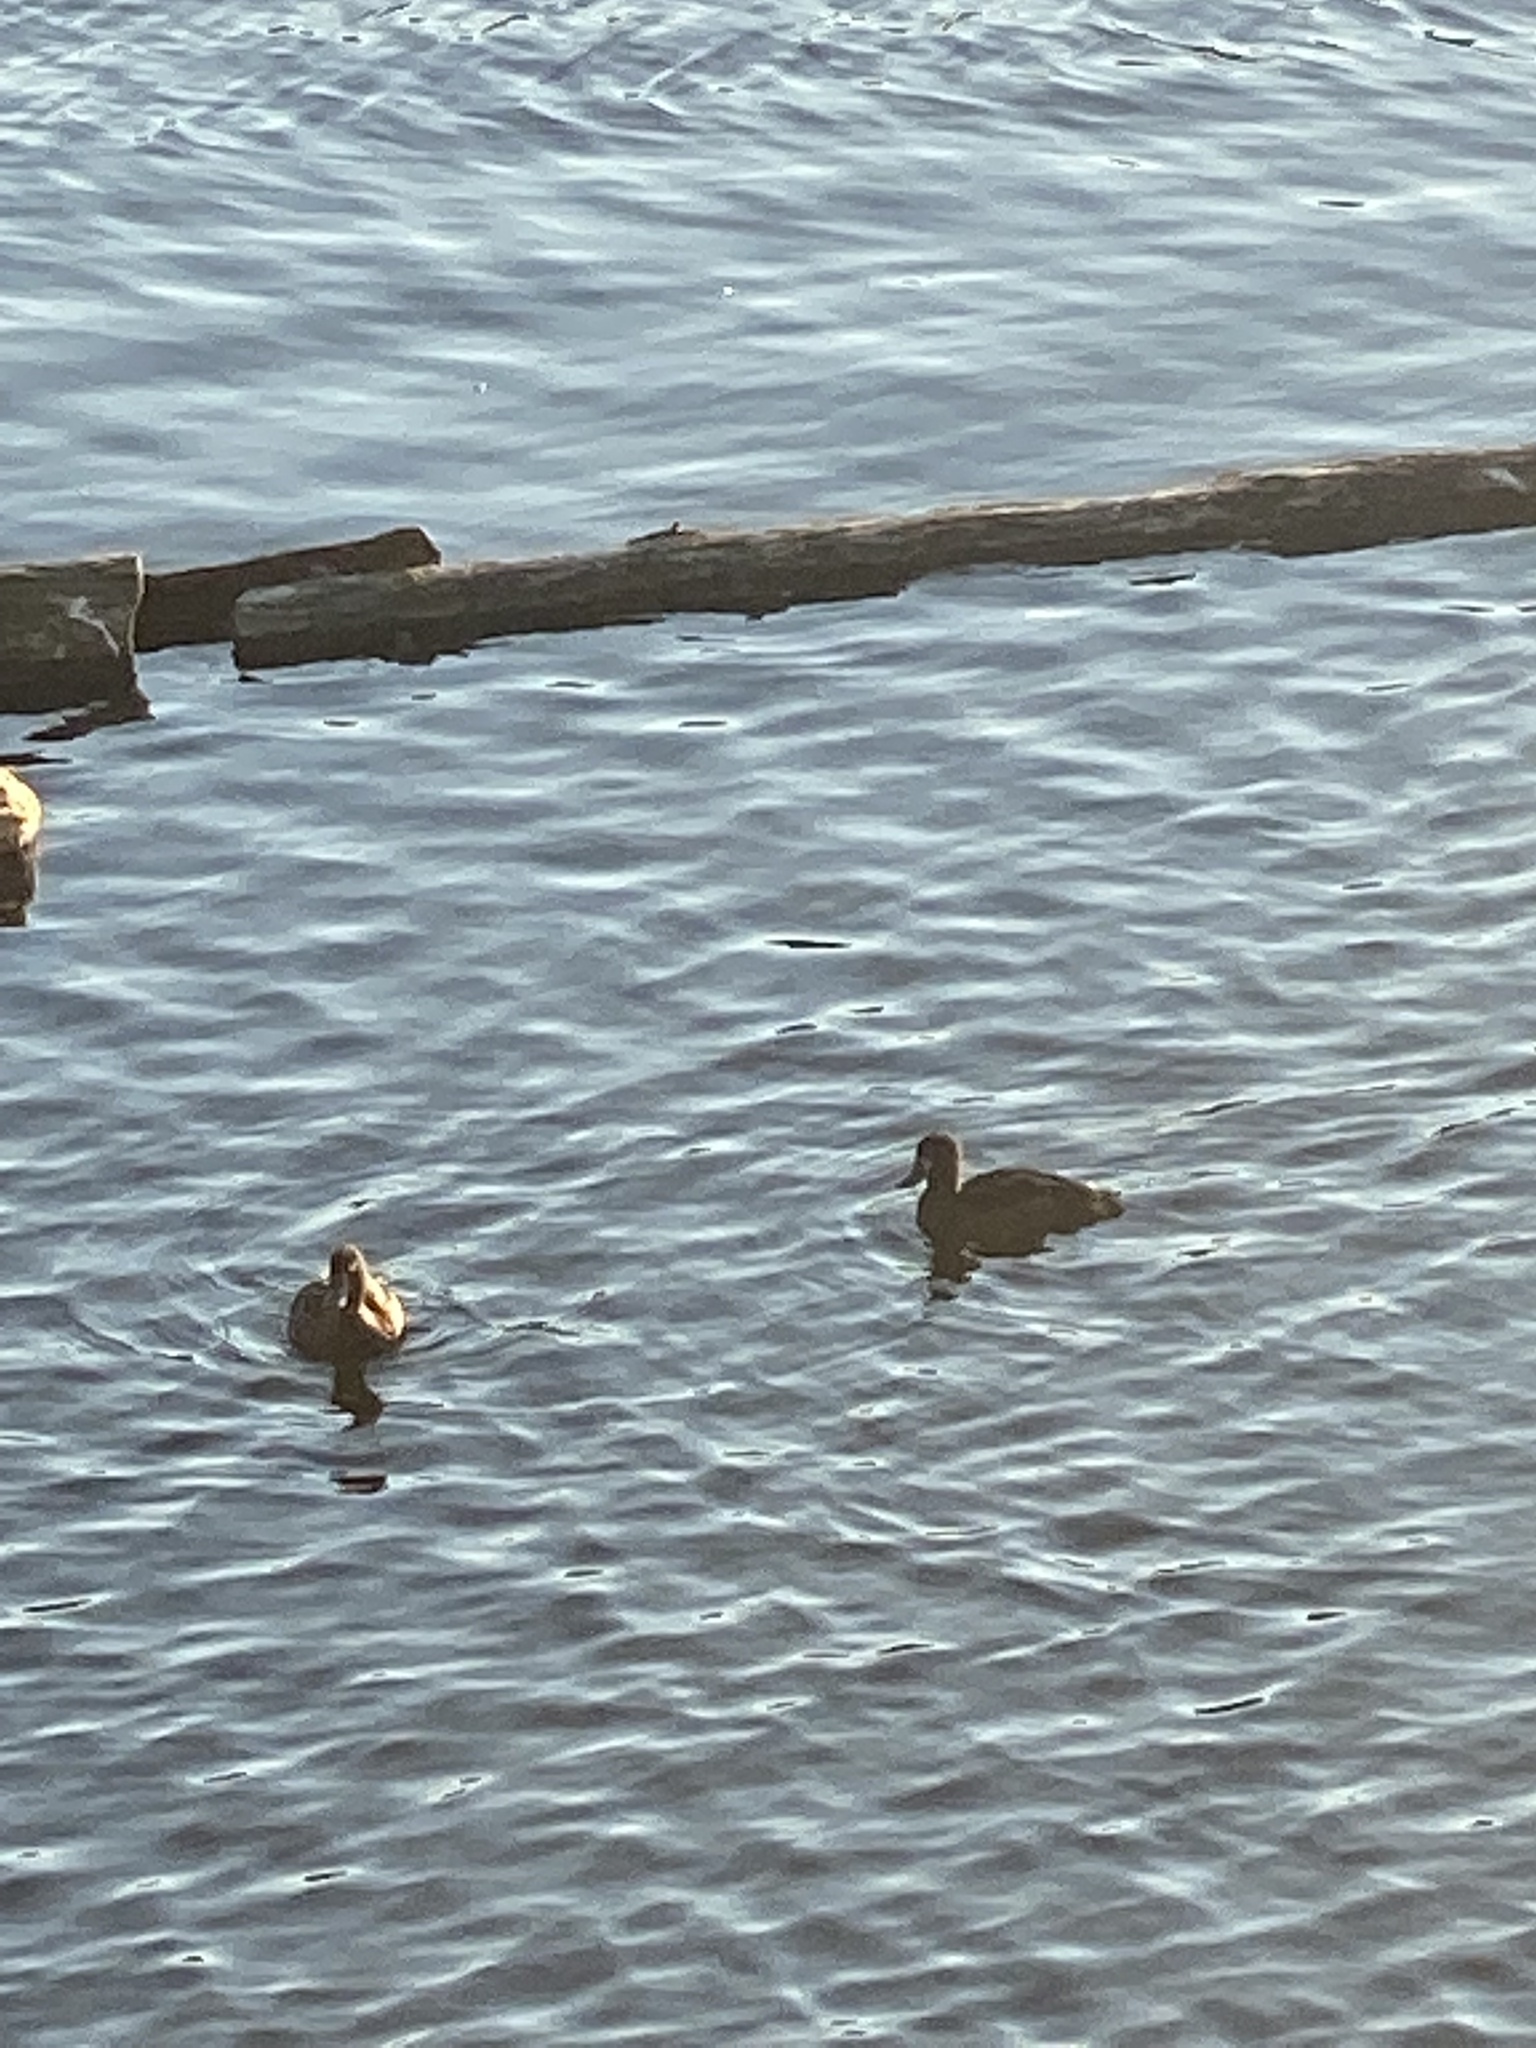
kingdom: Animalia
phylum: Chordata
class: Aves
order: Anseriformes
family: Anatidae
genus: Aythya
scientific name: Aythya fuligula
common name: Tufted duck
